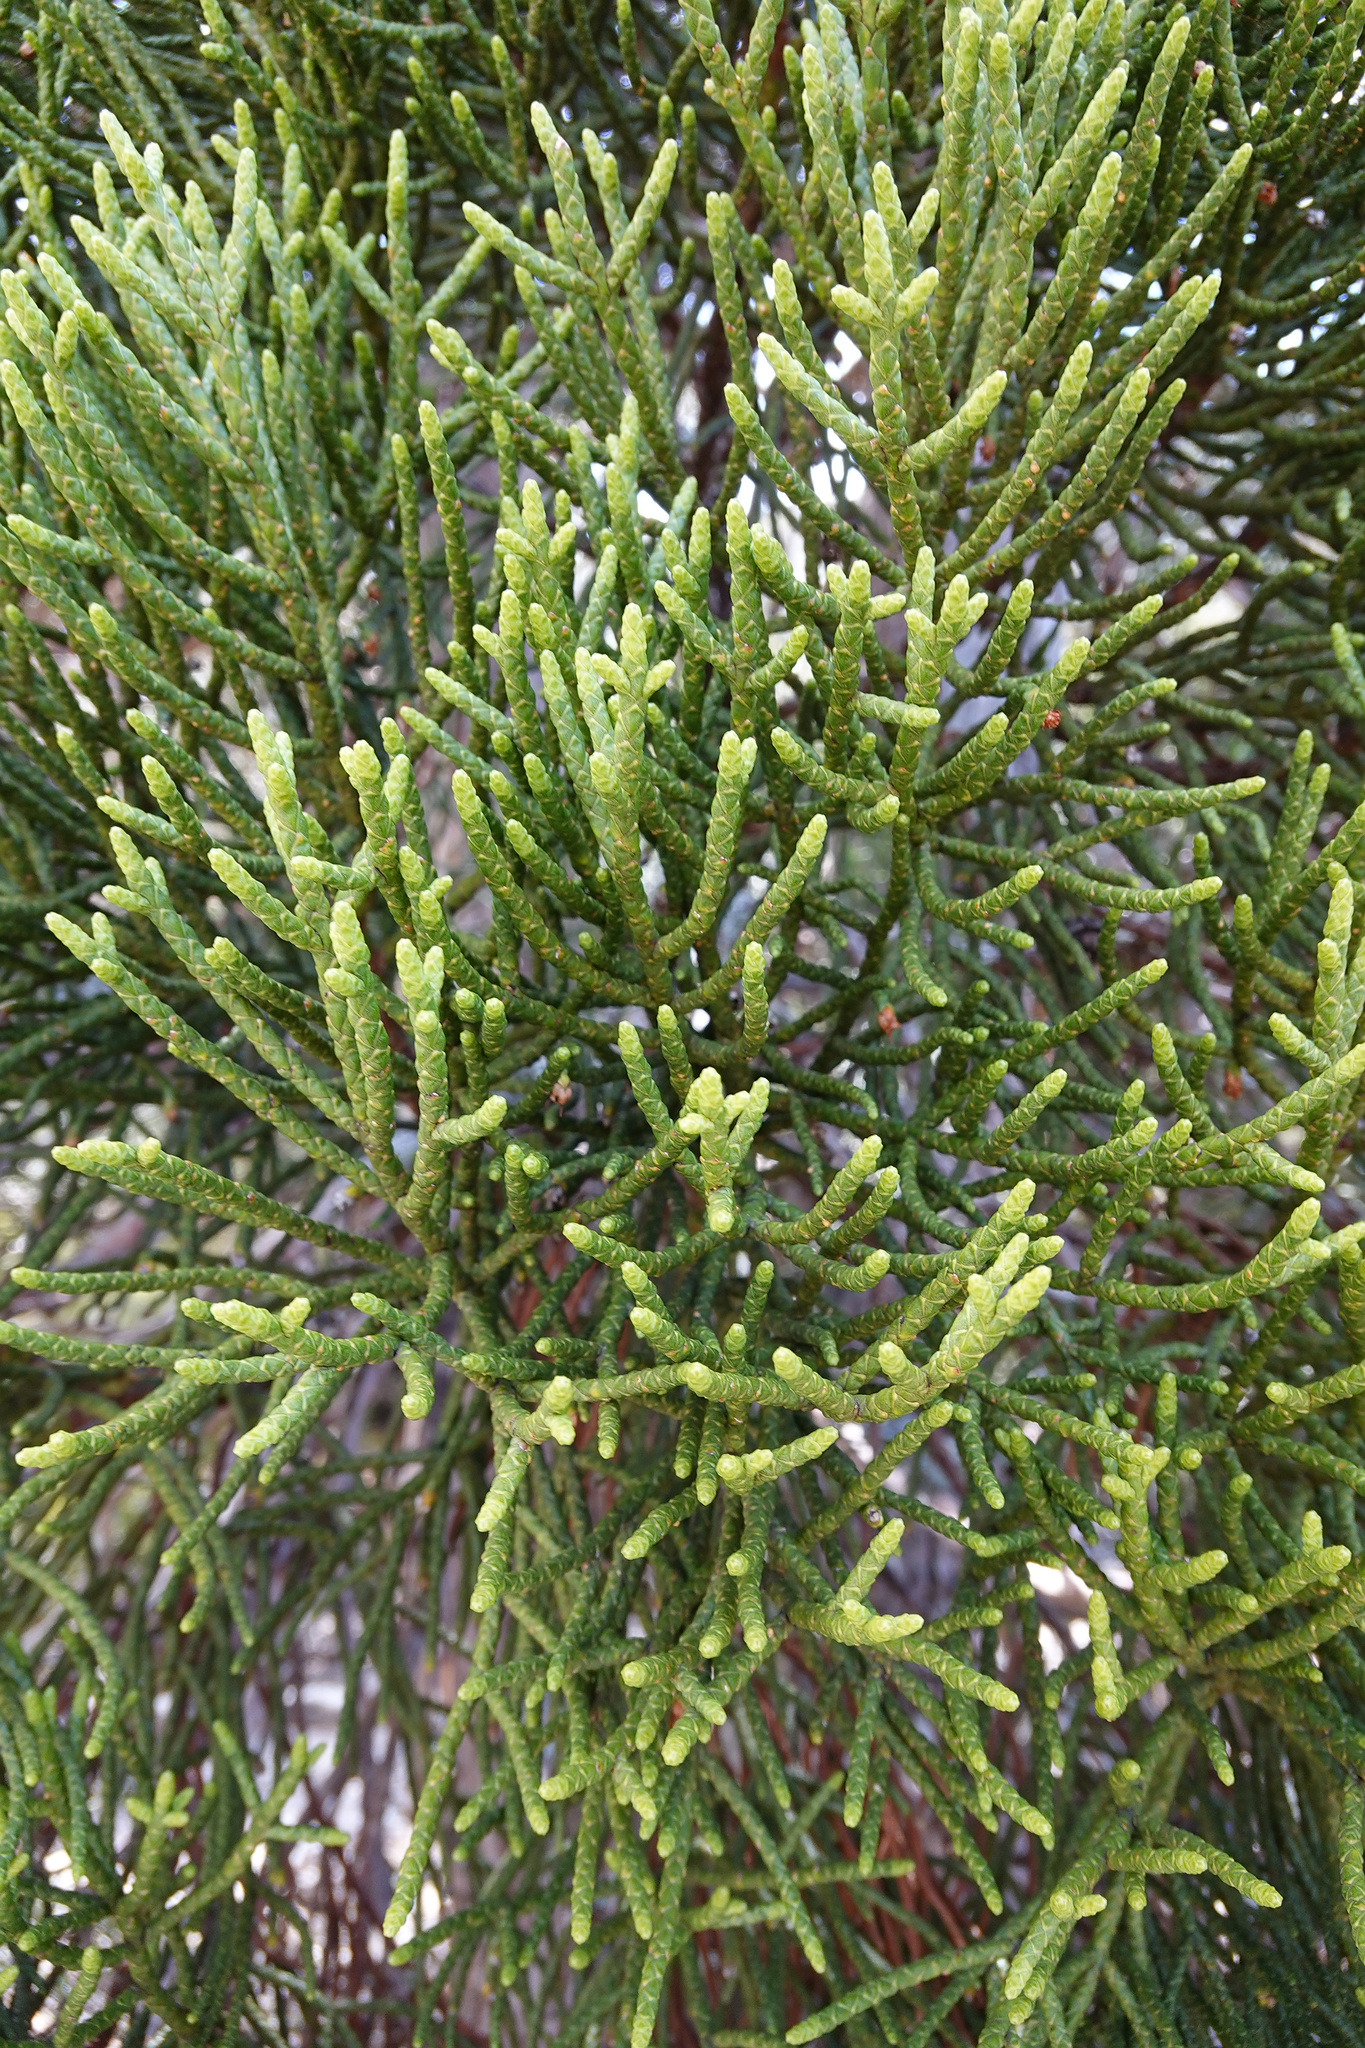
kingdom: Plantae
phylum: Tracheophyta
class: Pinopsida
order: Pinales
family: Cupressaceae
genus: Athrotaxis
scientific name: Athrotaxis cupressoides
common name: Tasmanian pencil pine
